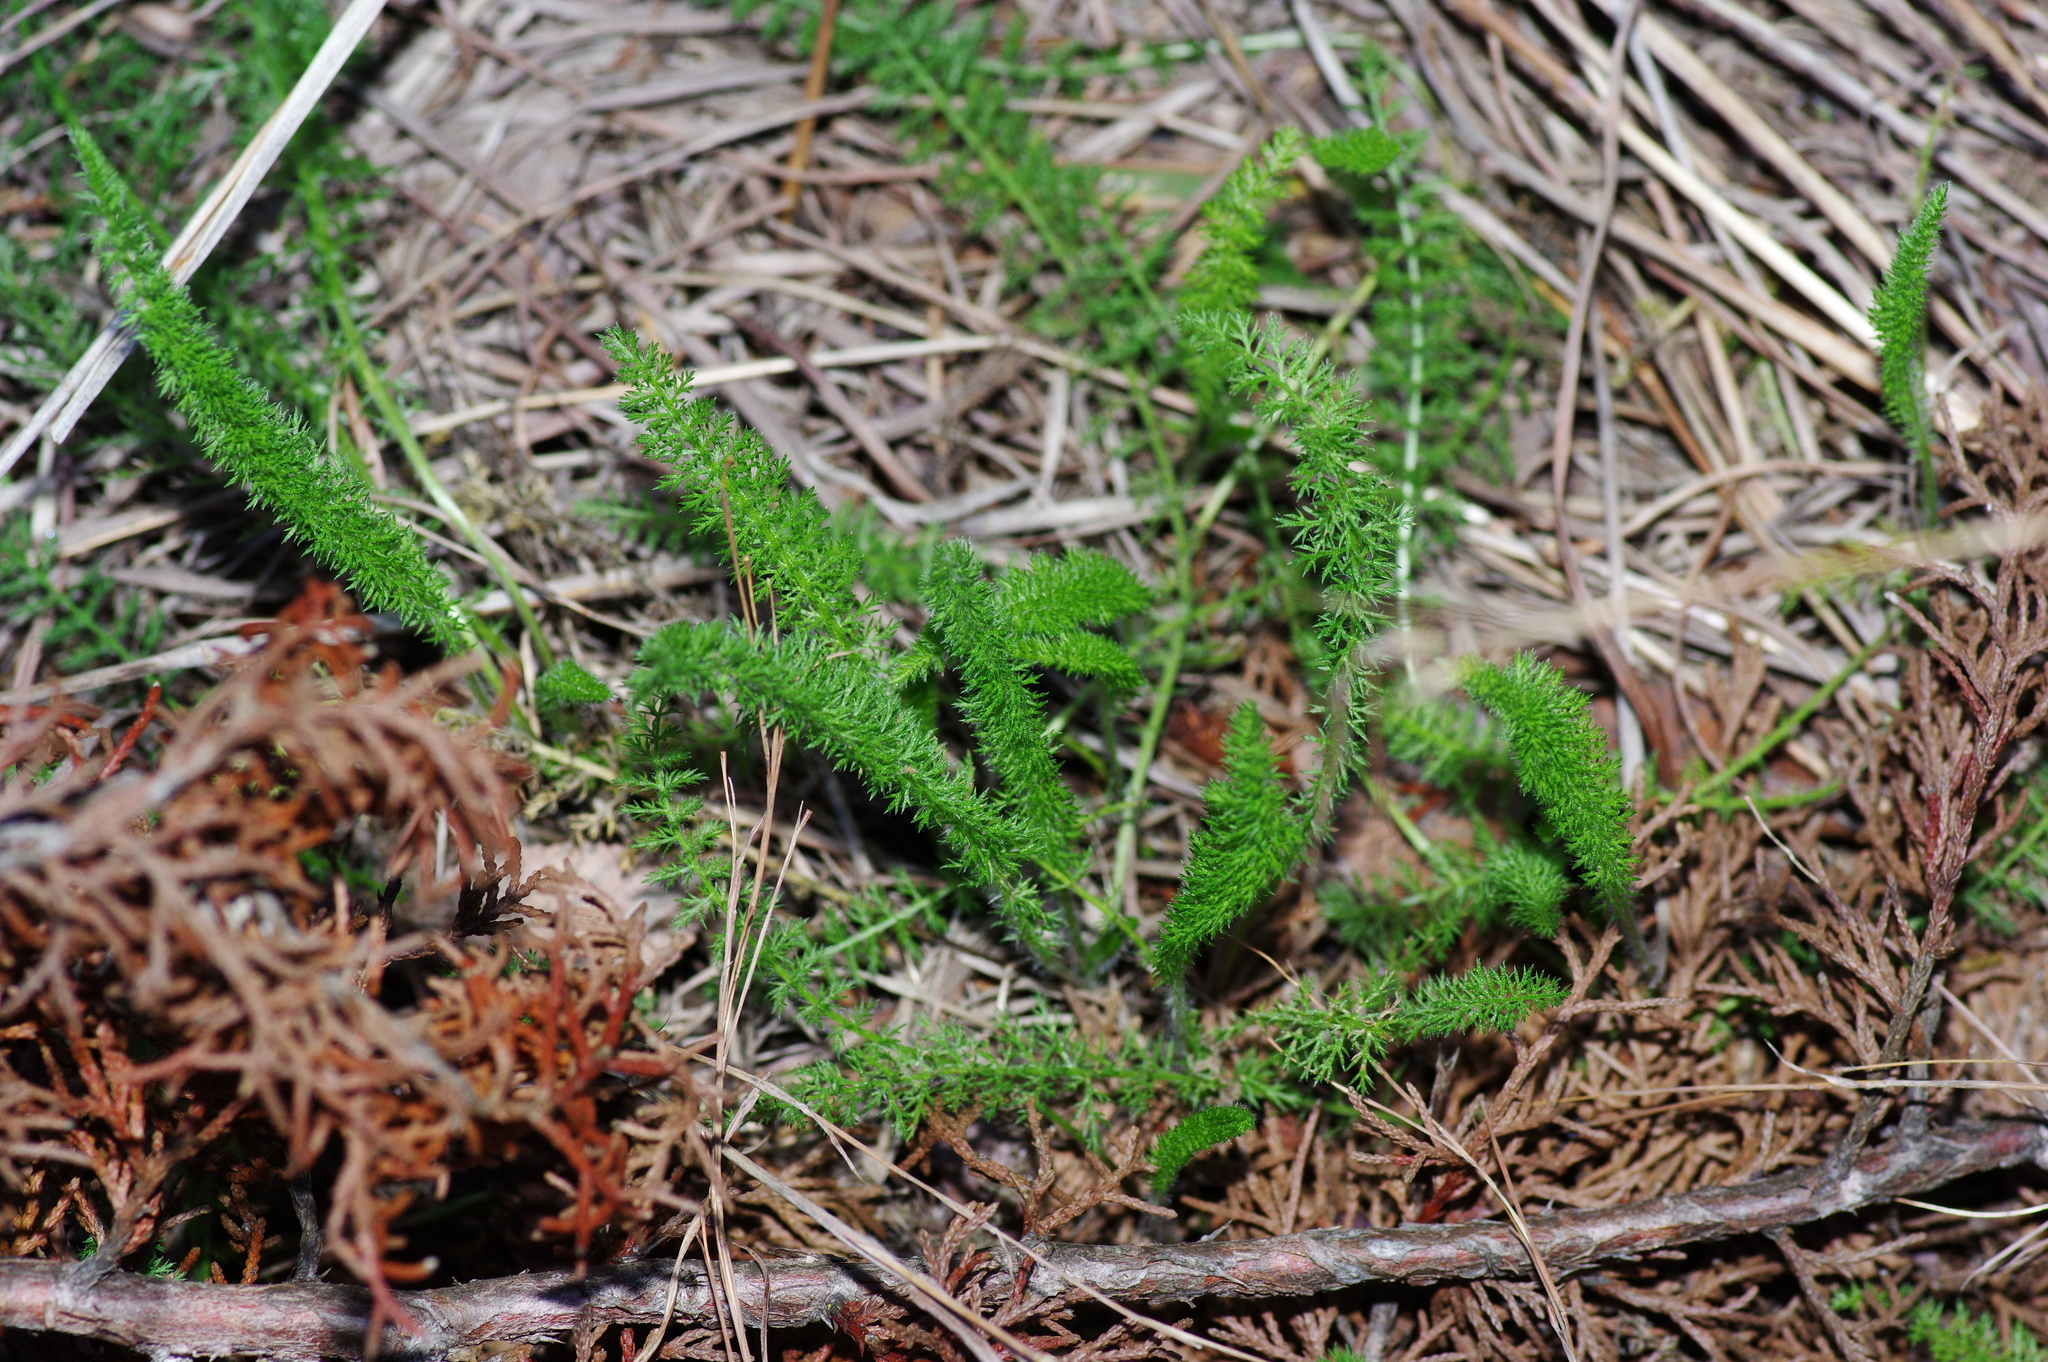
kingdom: Plantae
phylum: Tracheophyta
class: Magnoliopsida
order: Asterales
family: Asteraceae
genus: Achillea
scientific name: Achillea millefolium
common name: Yarrow
